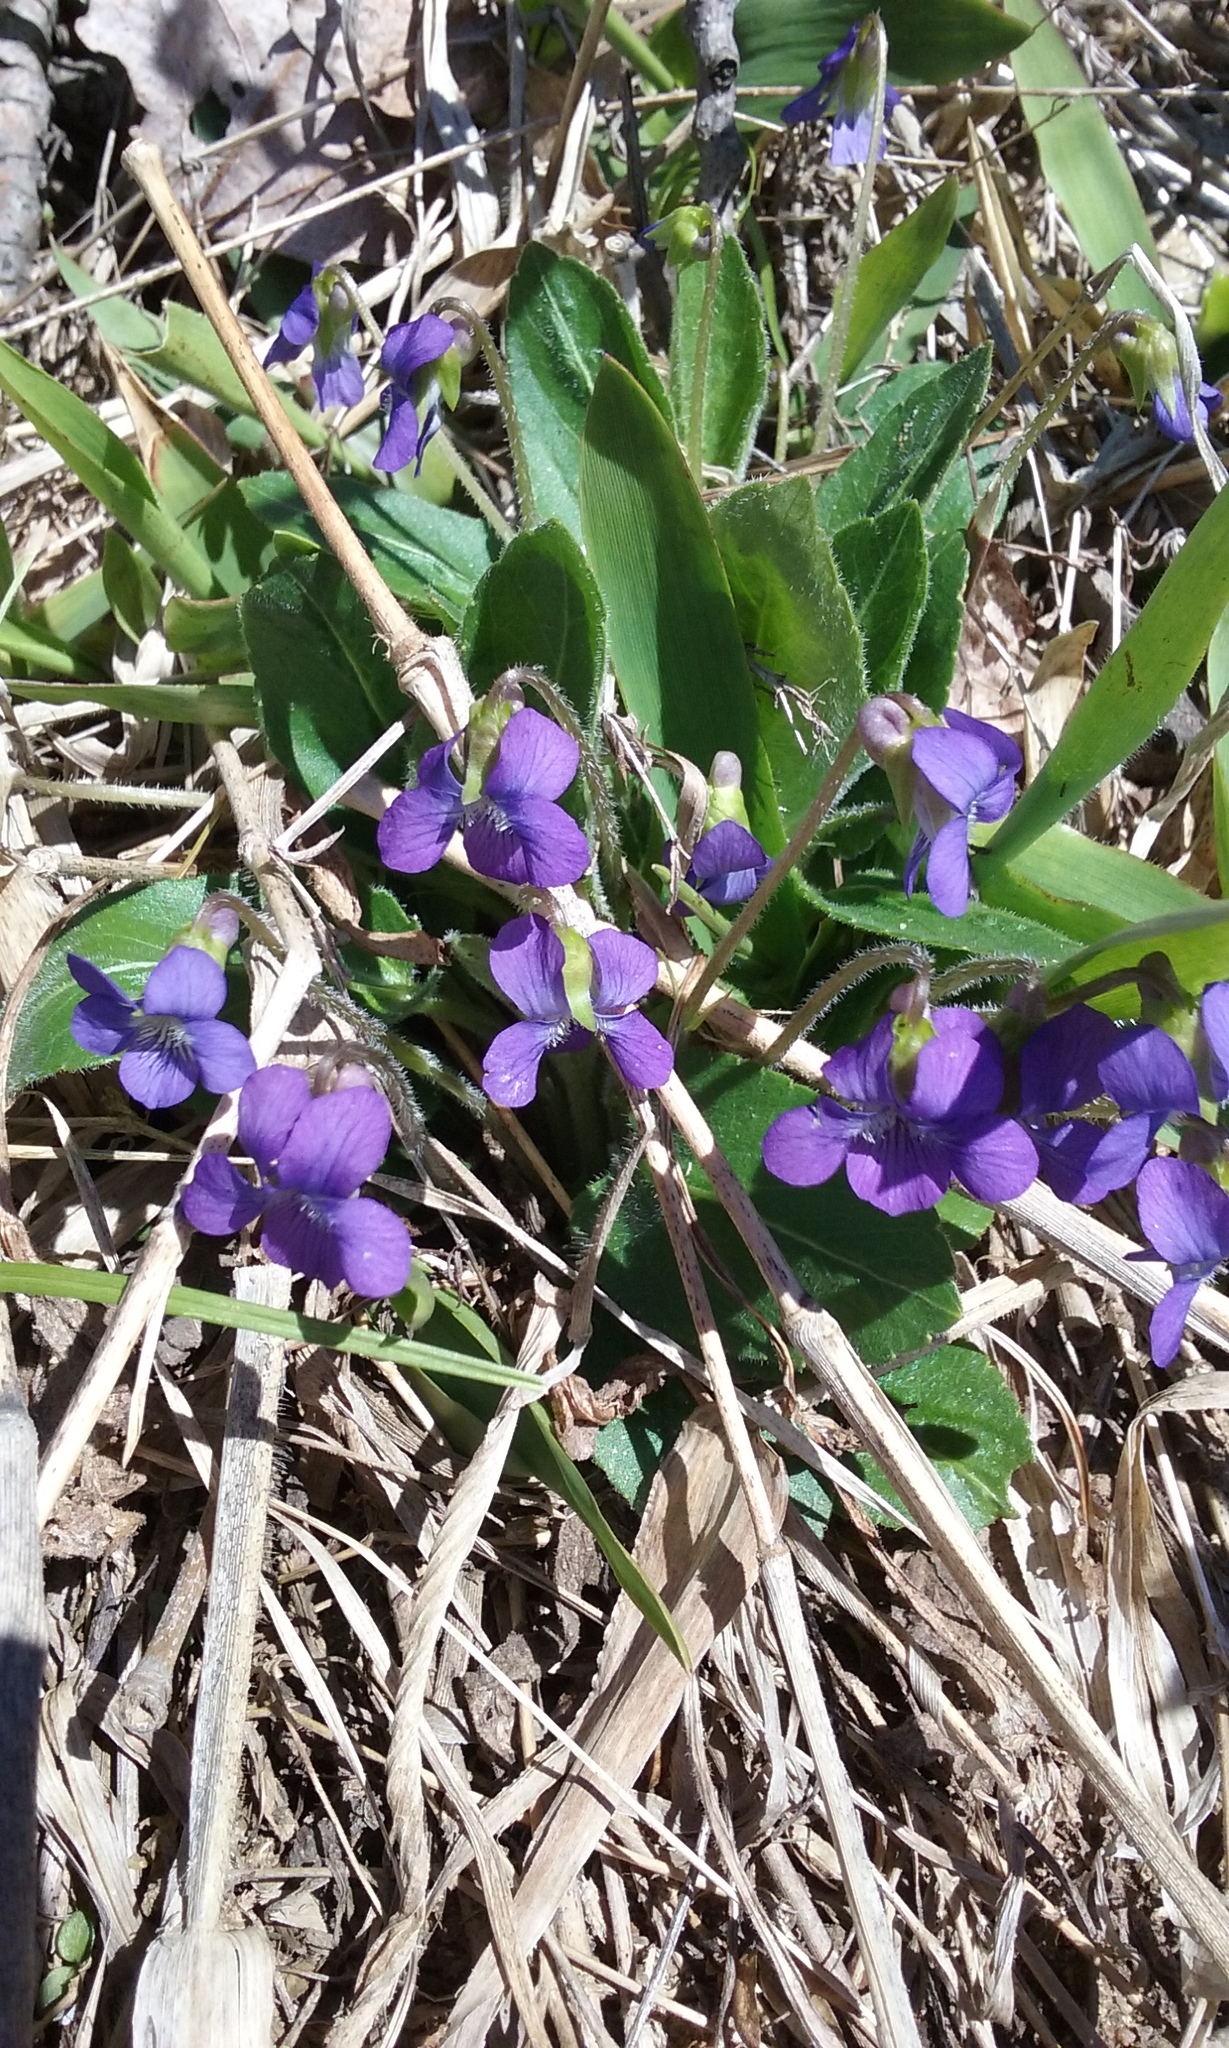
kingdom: Plantae
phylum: Tracheophyta
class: Magnoliopsida
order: Malpighiales
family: Violaceae
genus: Viola
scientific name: Viola sororia
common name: Dooryard violet
